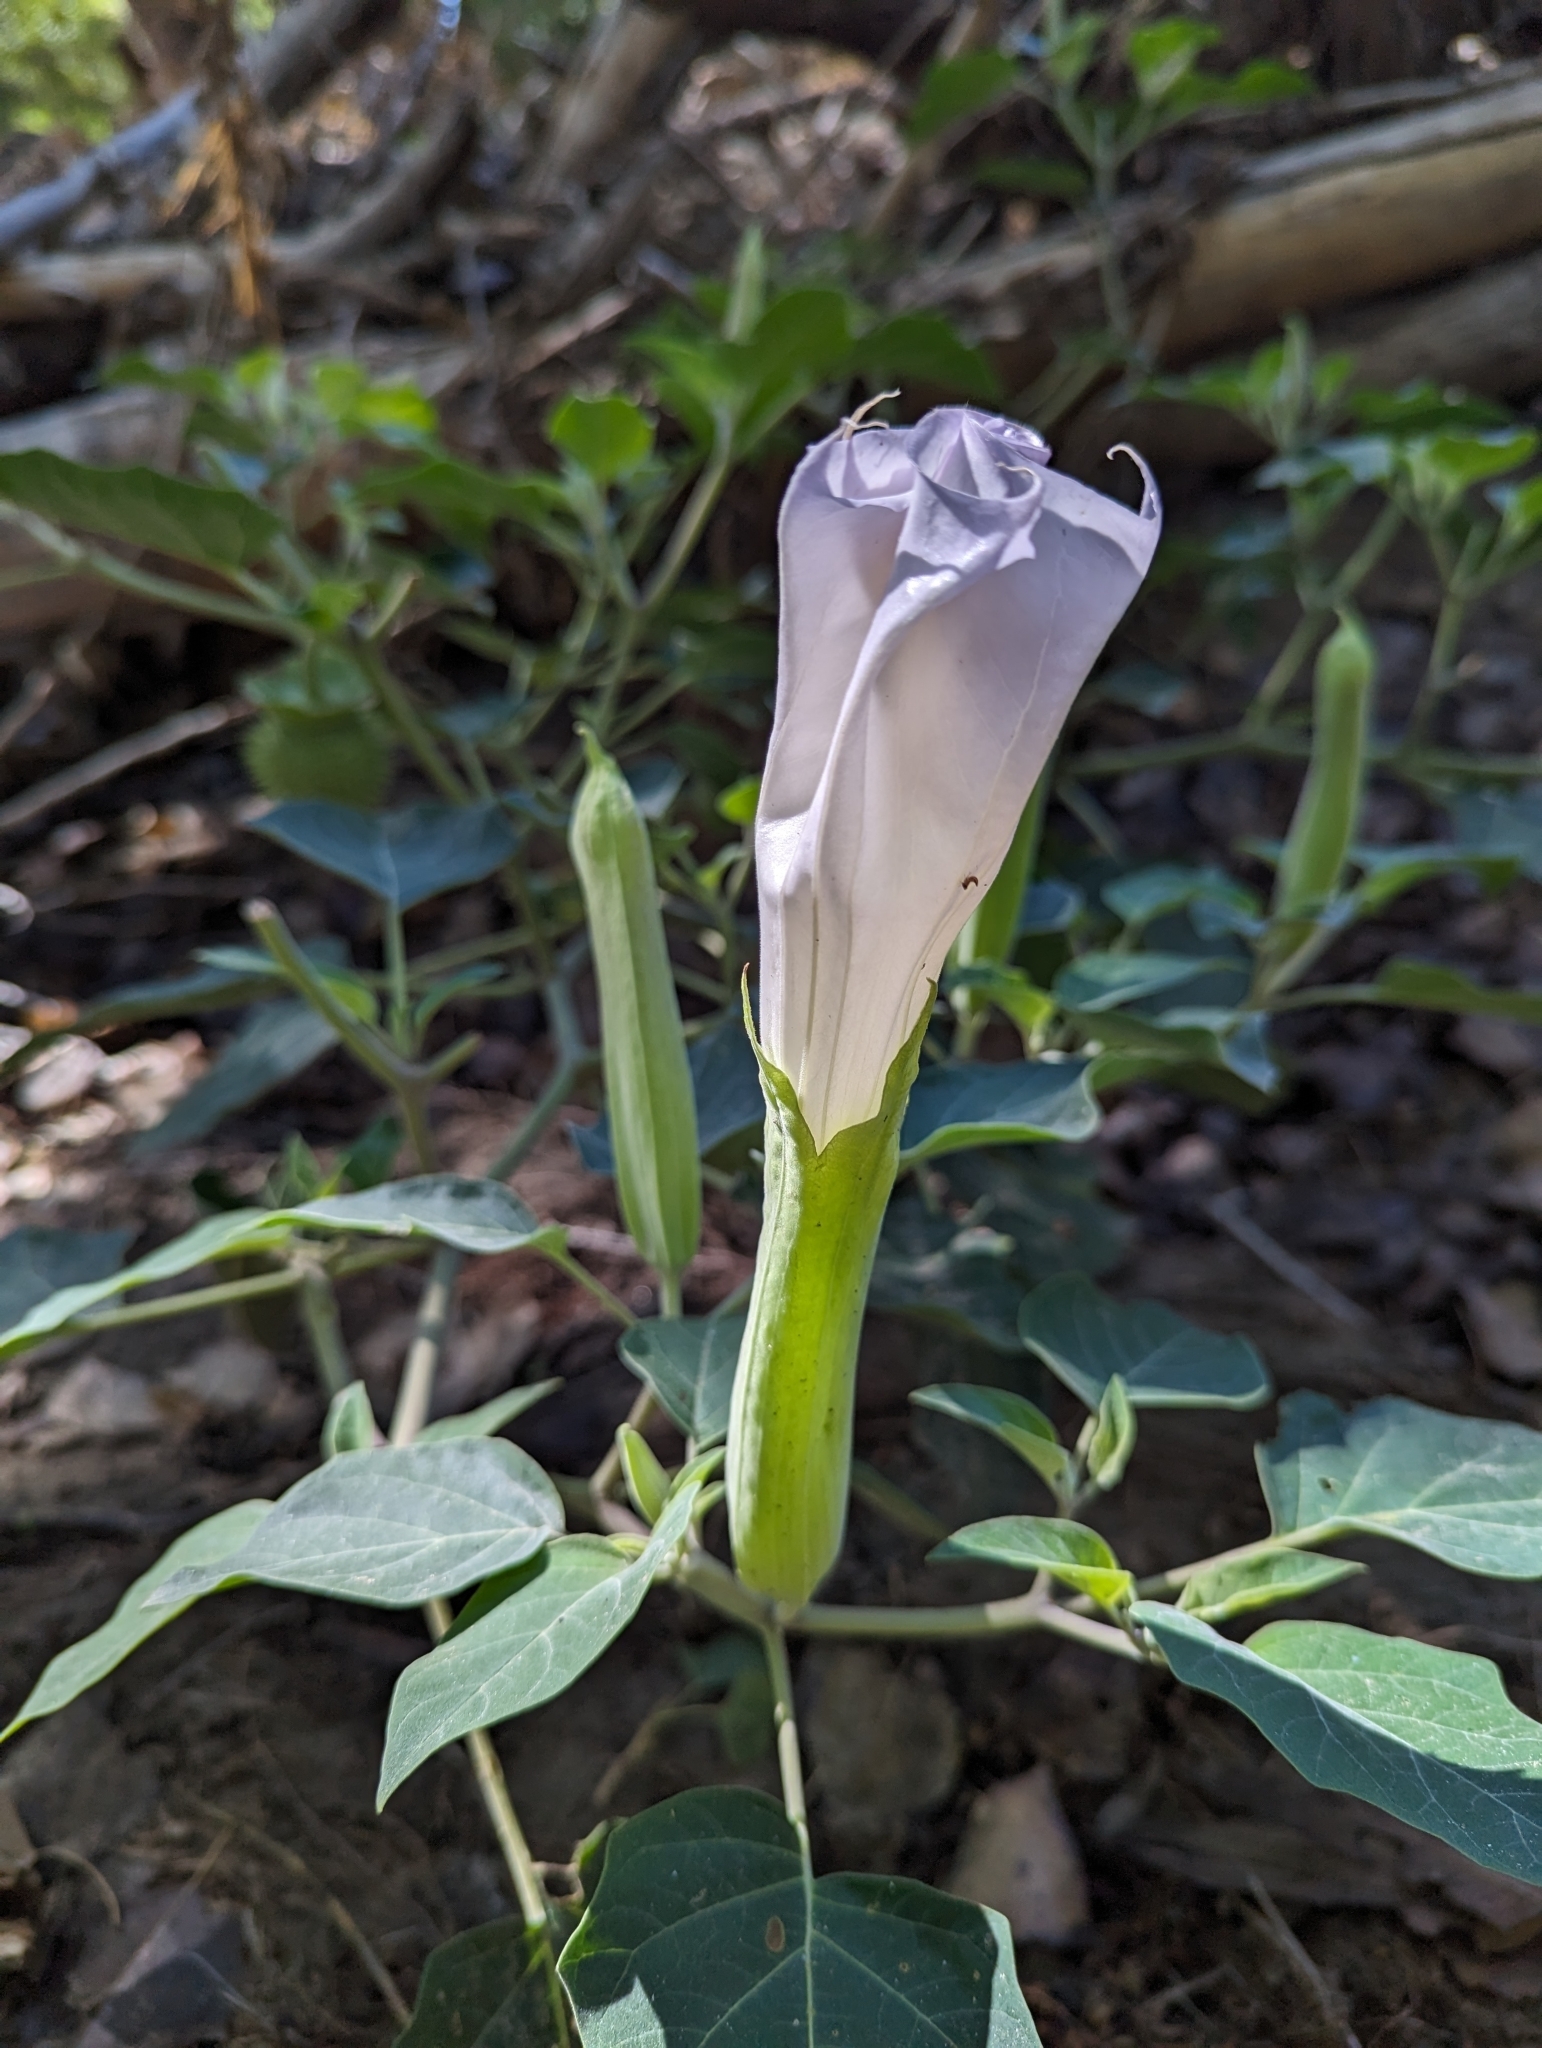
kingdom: Plantae
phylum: Tracheophyta
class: Magnoliopsida
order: Solanales
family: Solanaceae
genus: Datura
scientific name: Datura wrightii
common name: Sacred thorn-apple
